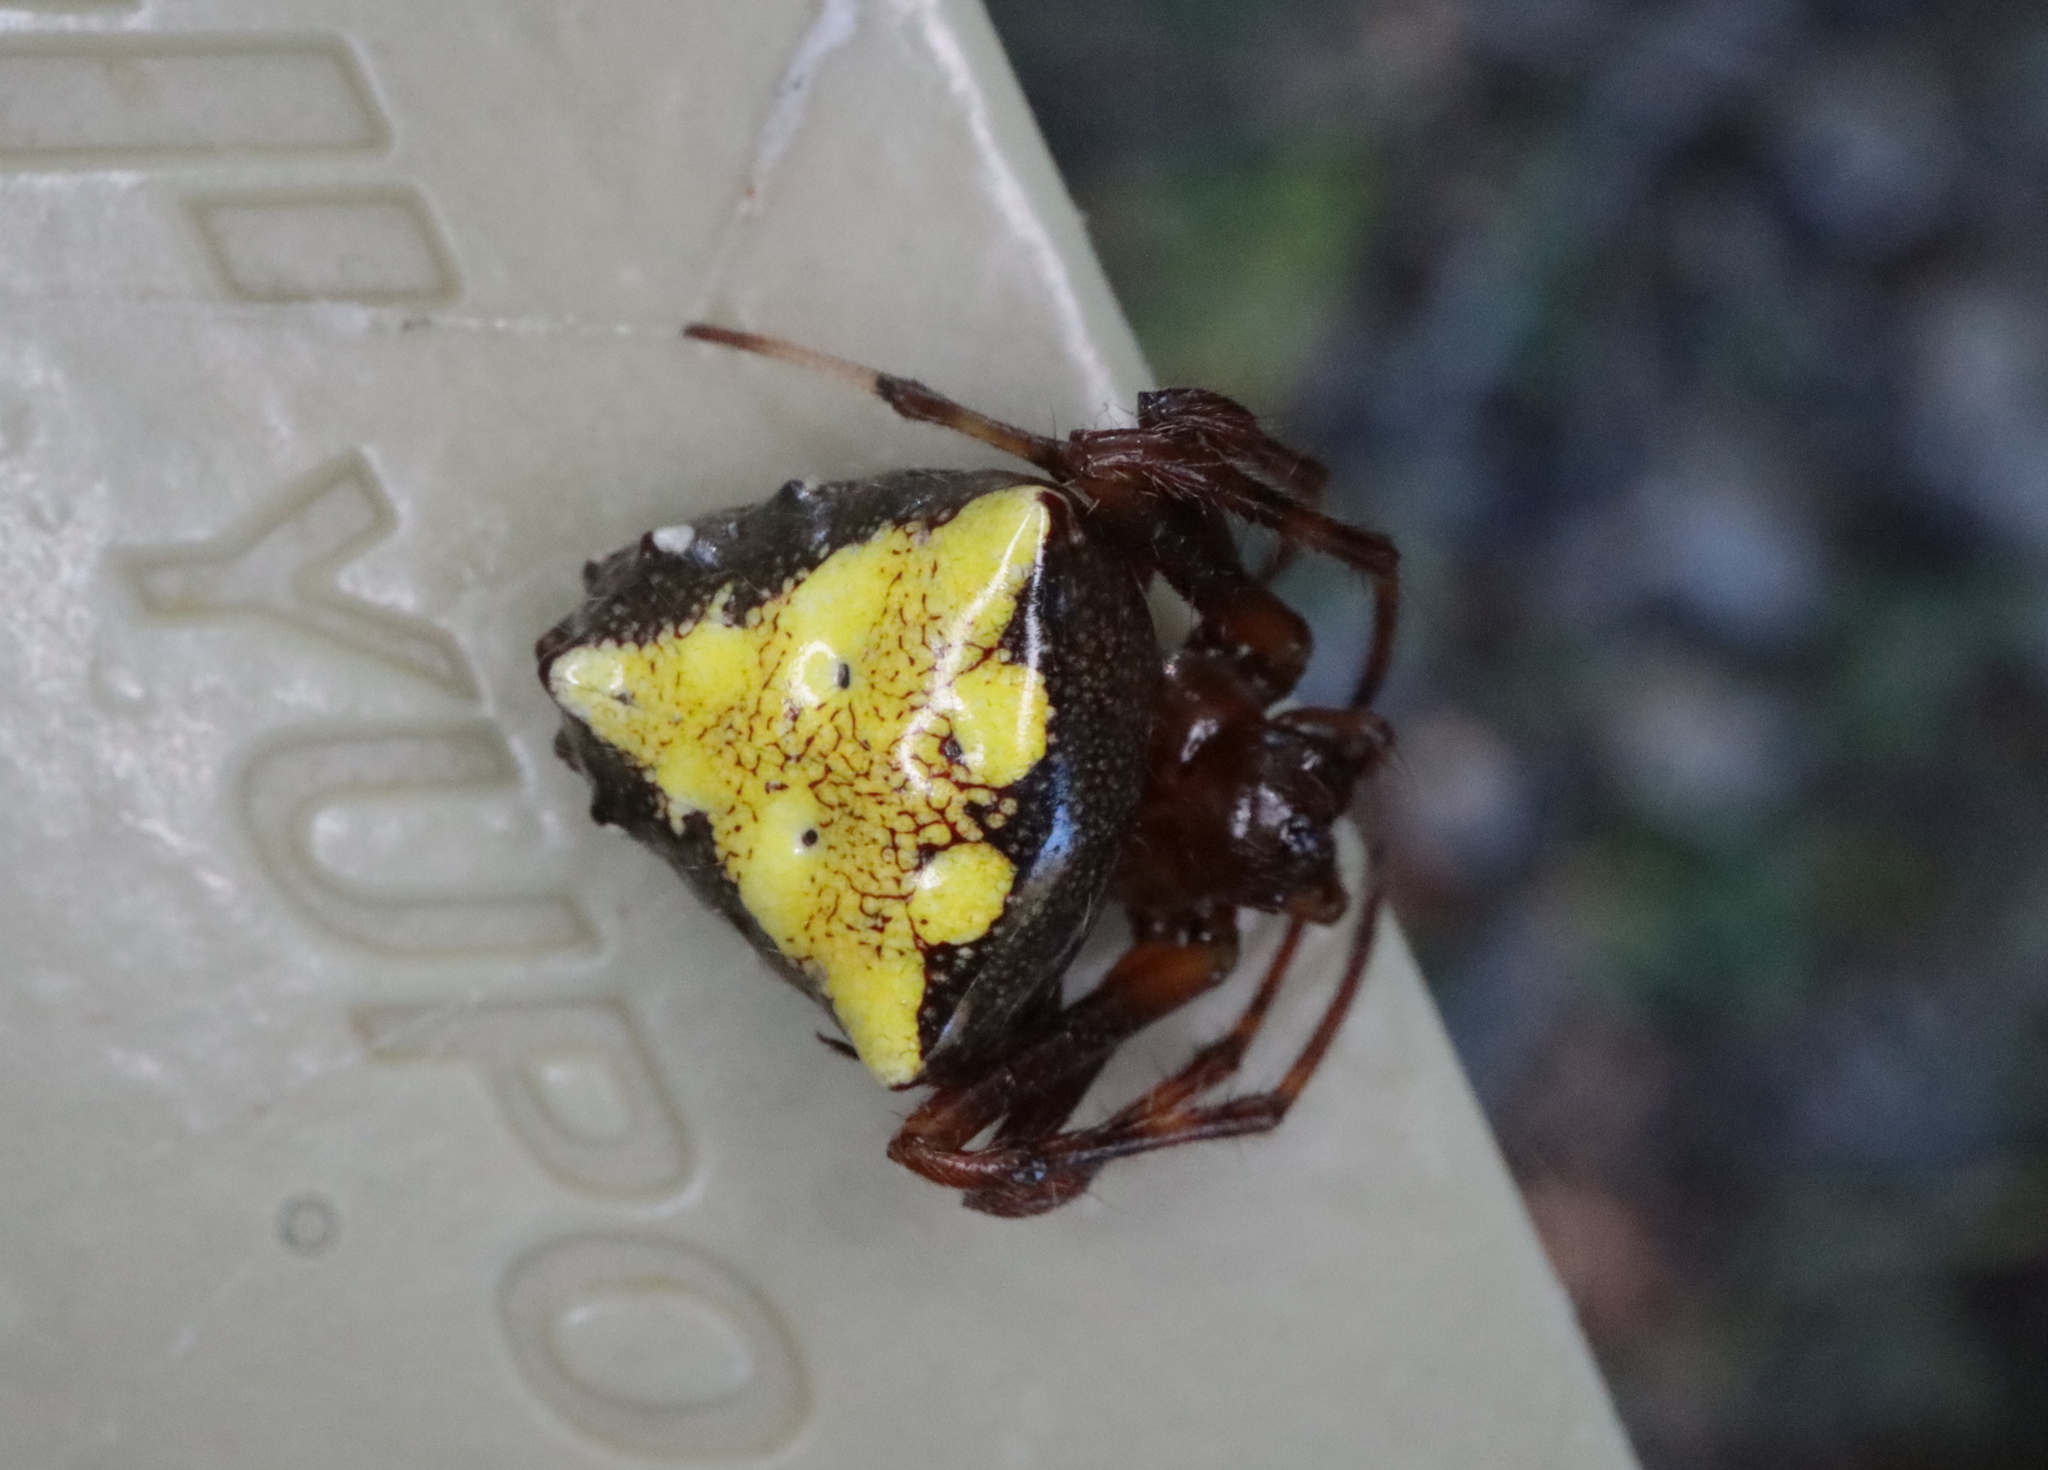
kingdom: Animalia
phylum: Arthropoda
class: Arachnida
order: Araneae
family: Araneidae
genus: Verrucosa
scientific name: Verrucosa arenata
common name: Orb weavers
